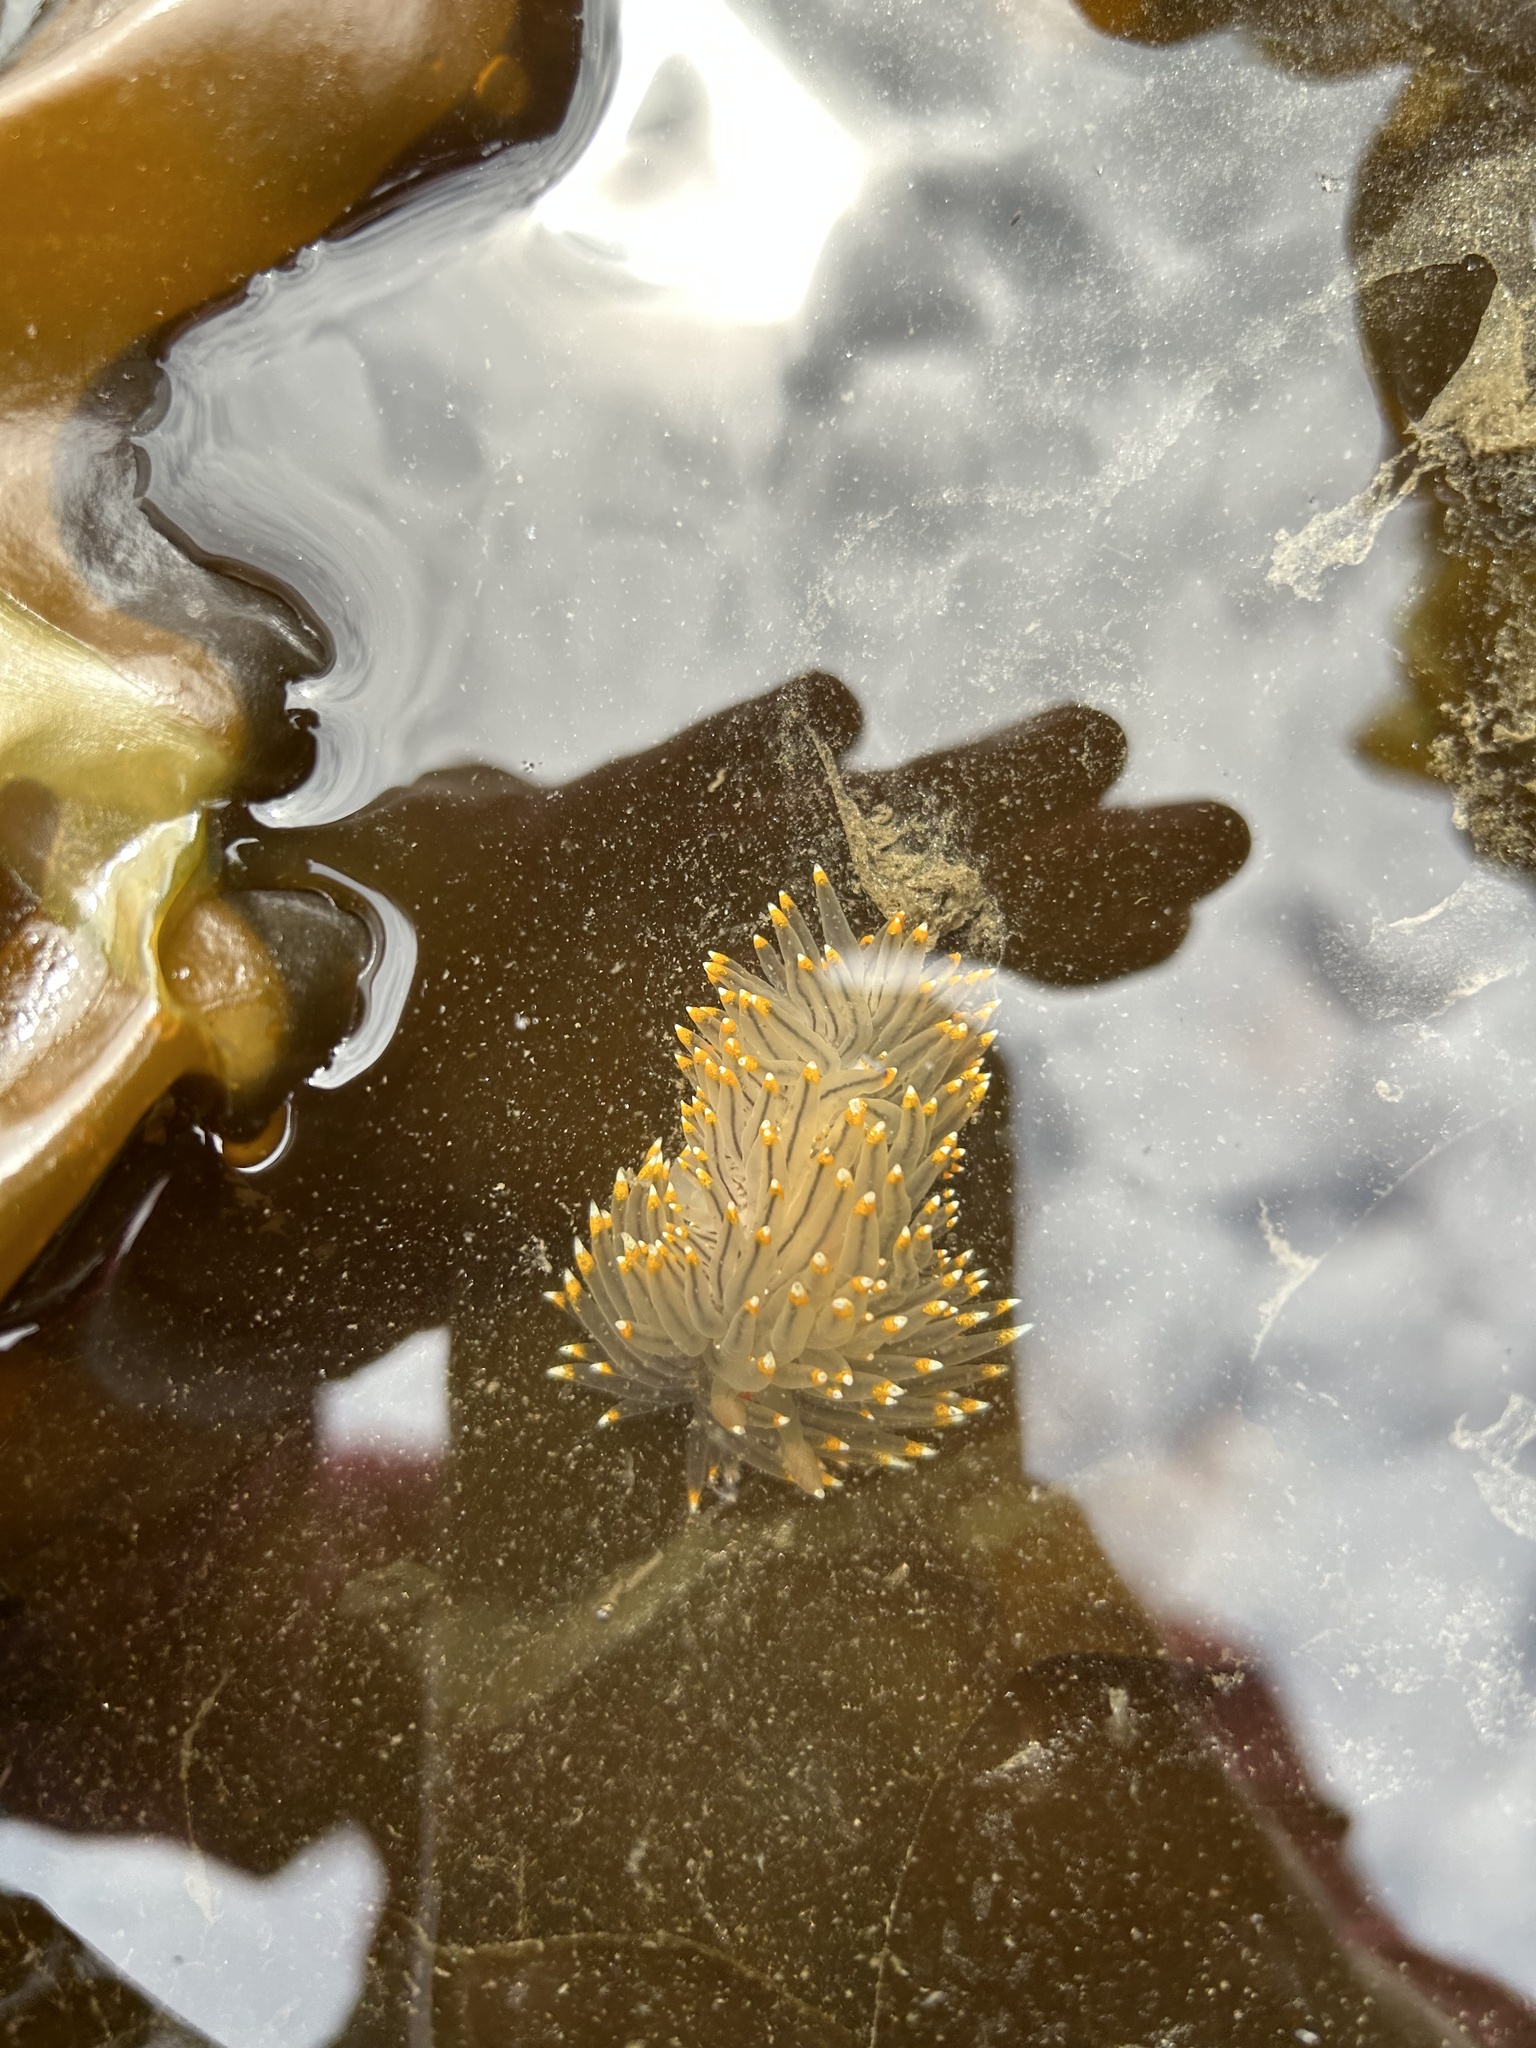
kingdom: Animalia
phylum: Mollusca
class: Gastropoda
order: Nudibranchia
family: Janolidae
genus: Antiopella
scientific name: Antiopella fusca
